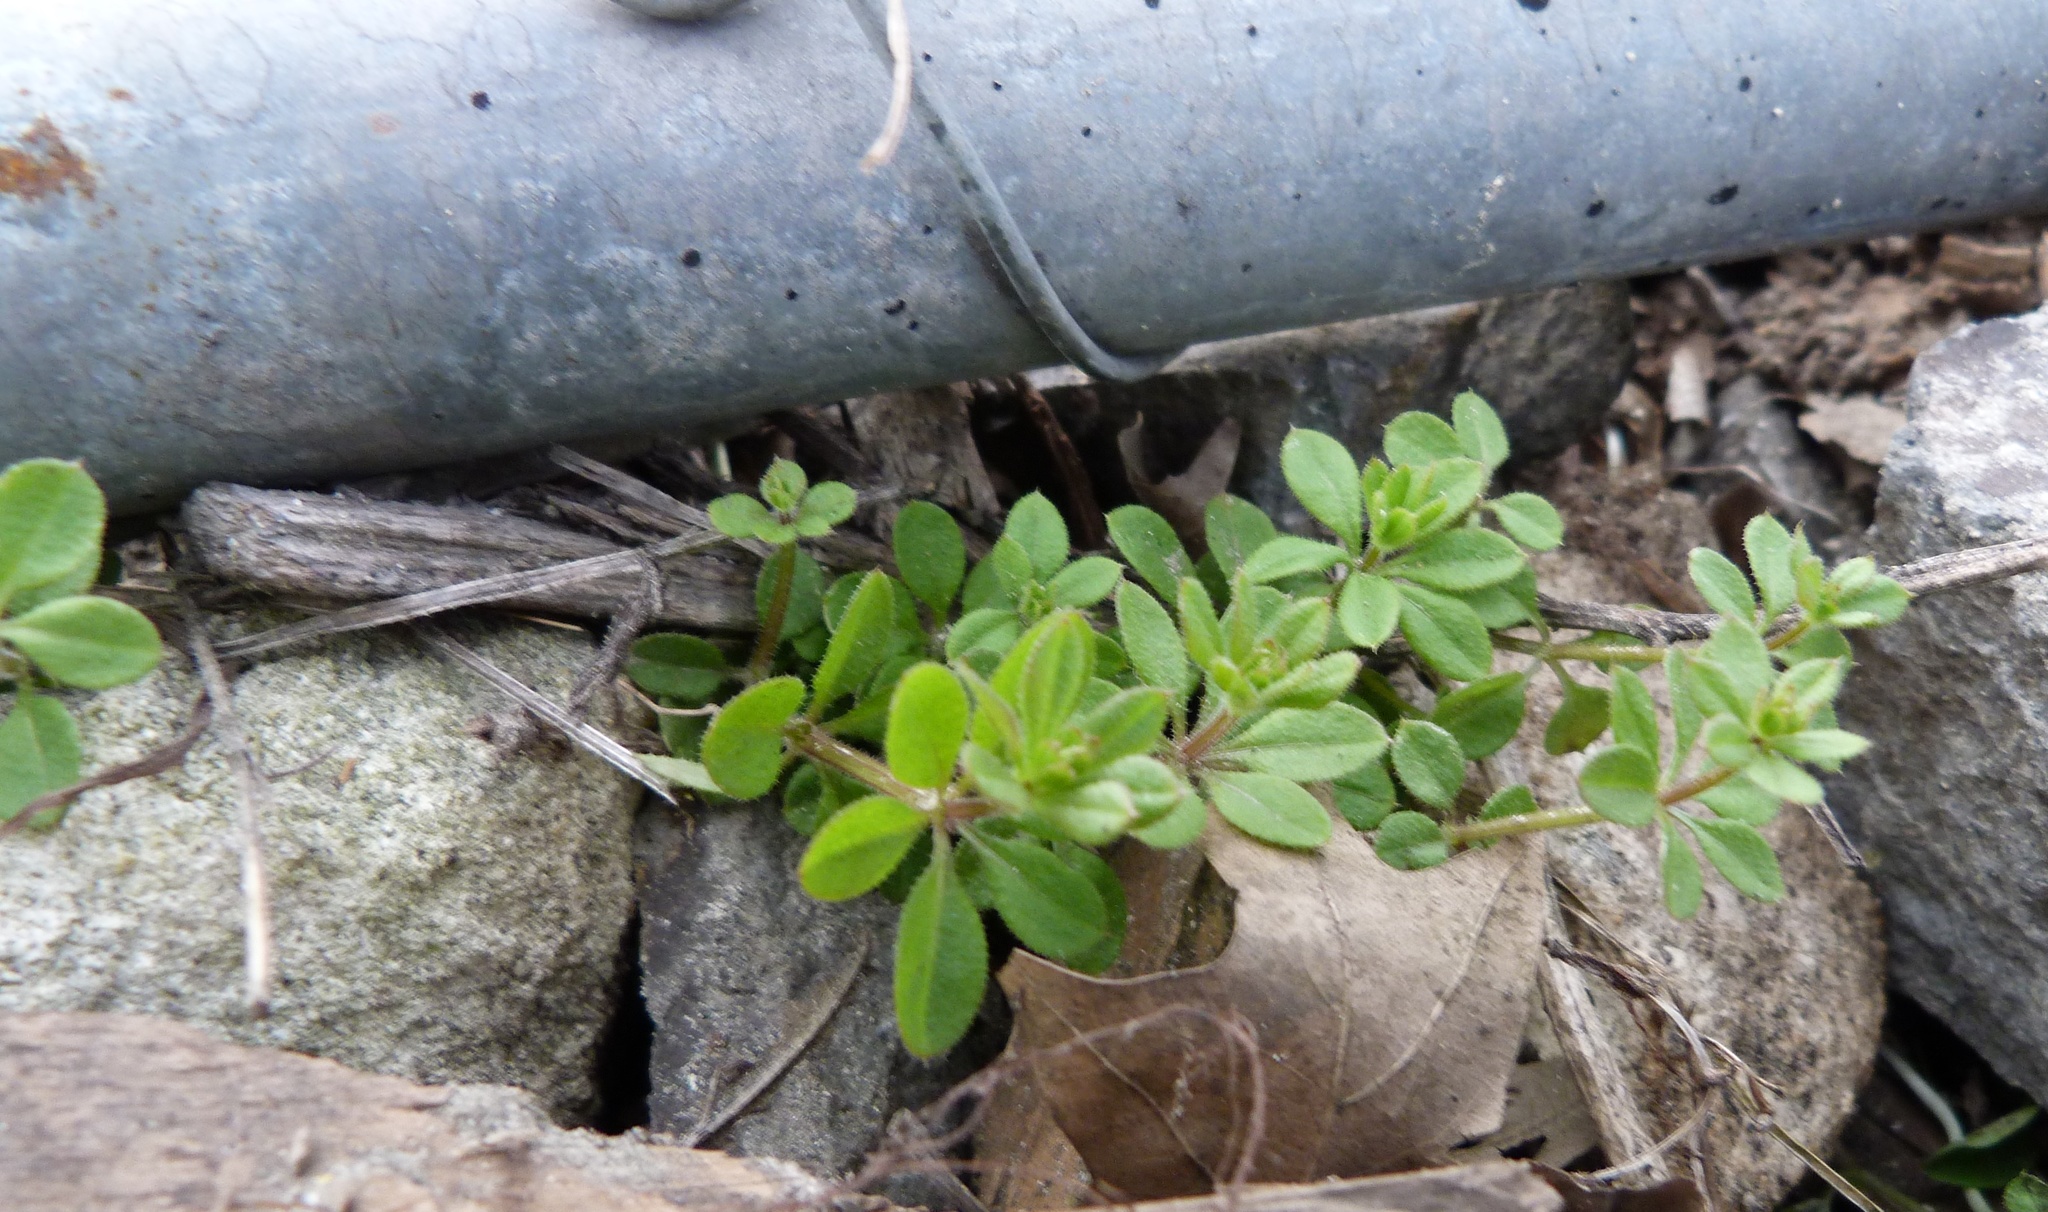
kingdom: Plantae
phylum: Tracheophyta
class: Magnoliopsida
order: Gentianales
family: Rubiaceae
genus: Galium
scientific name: Galium aparine
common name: Cleavers
